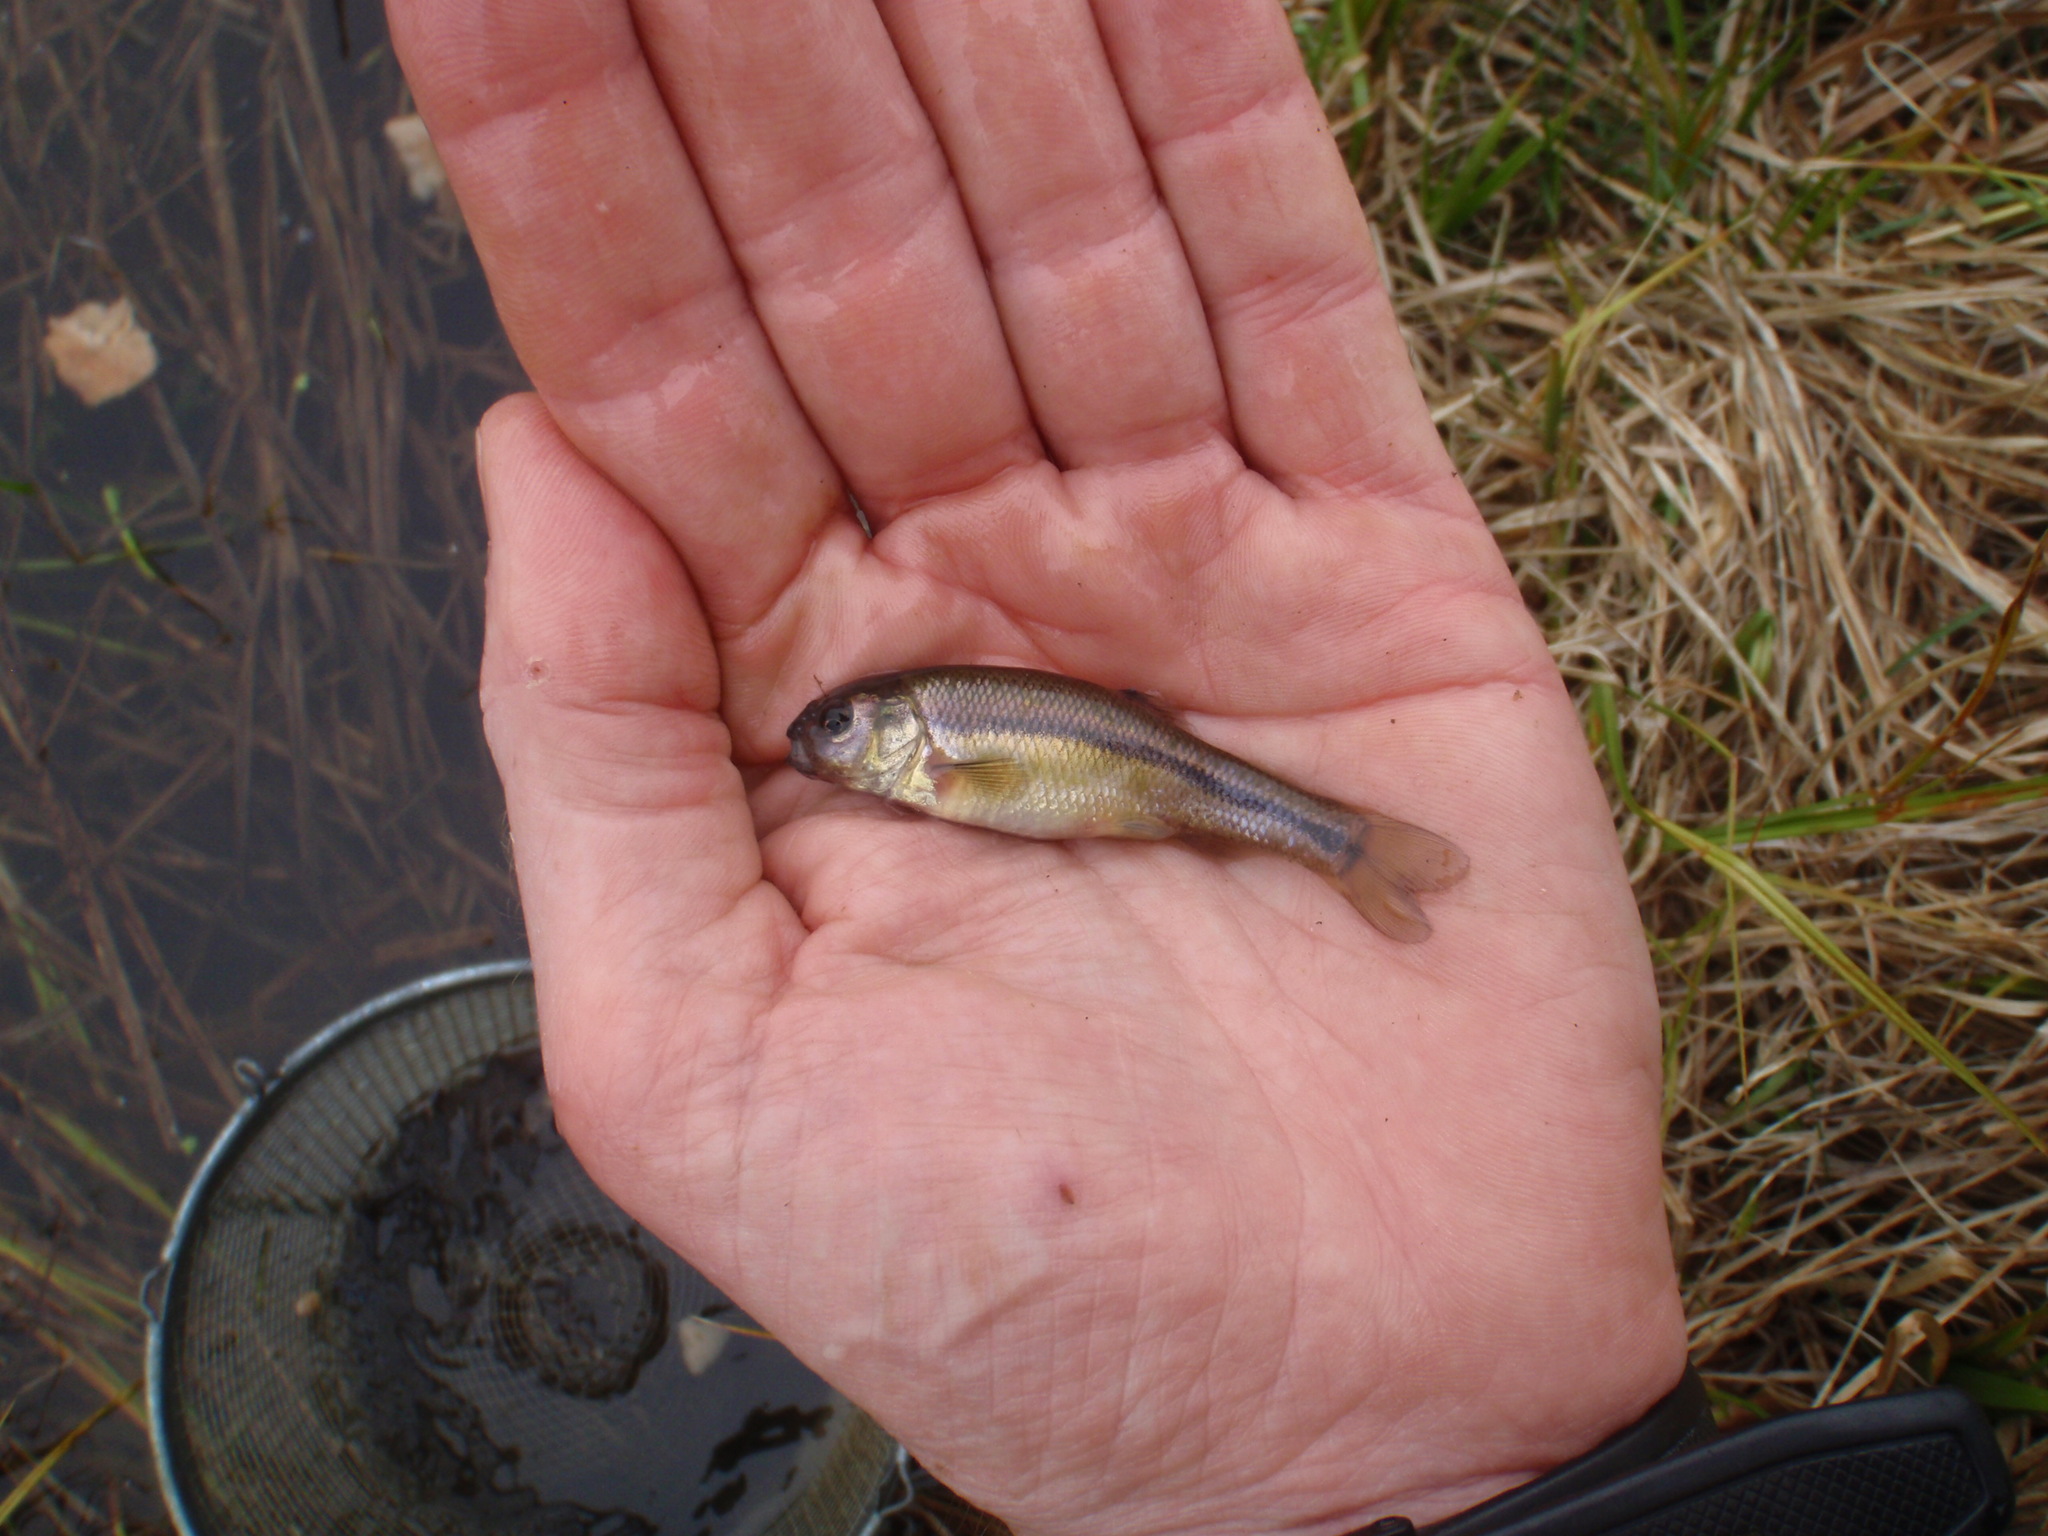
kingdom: Animalia
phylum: Chordata
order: Cypriniformes
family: Cyprinidae
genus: Pimephales
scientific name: Pimephales promelas
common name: Fathead minnow
